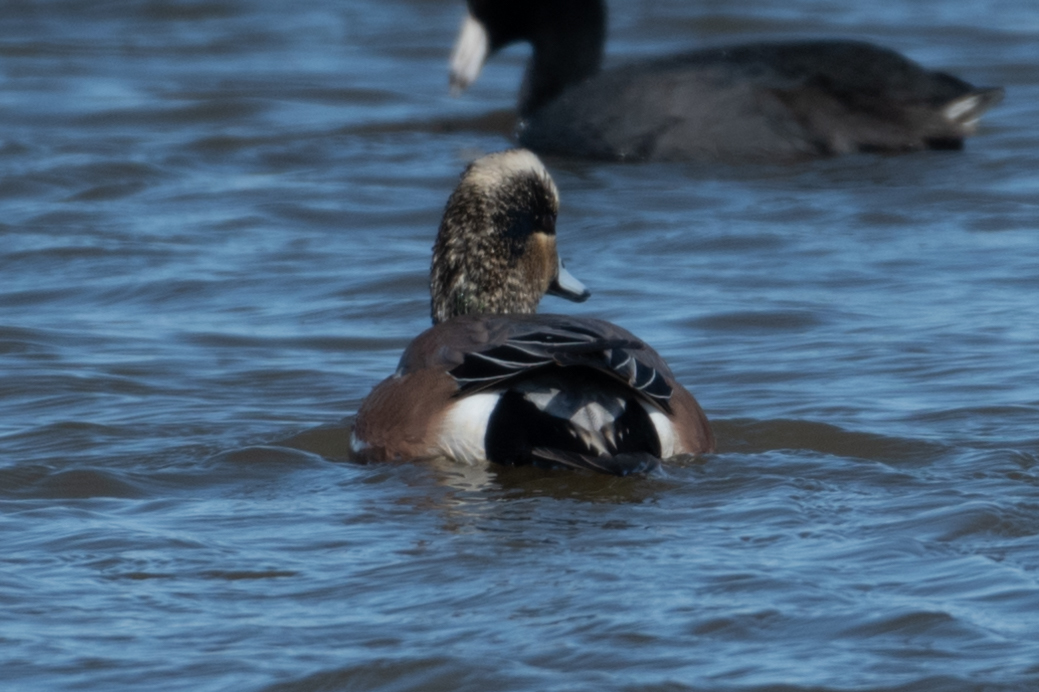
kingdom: Animalia
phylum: Chordata
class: Aves
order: Anseriformes
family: Anatidae
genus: Mareca
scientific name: Mareca americana
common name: American wigeon
